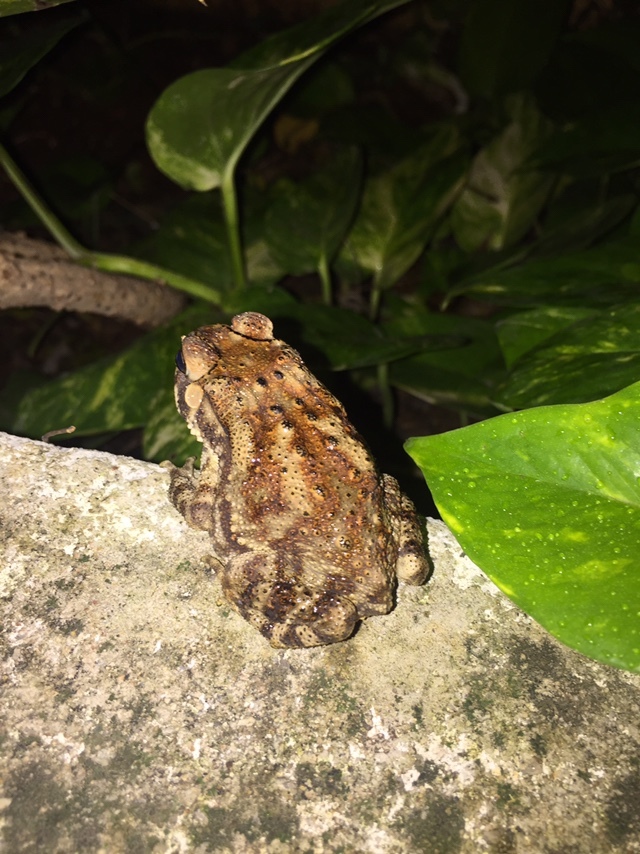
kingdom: Animalia
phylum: Chordata
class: Amphibia
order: Anura
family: Bufonidae
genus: Duttaphrynus
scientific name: Duttaphrynus melanostictus
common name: Common sunda toad
